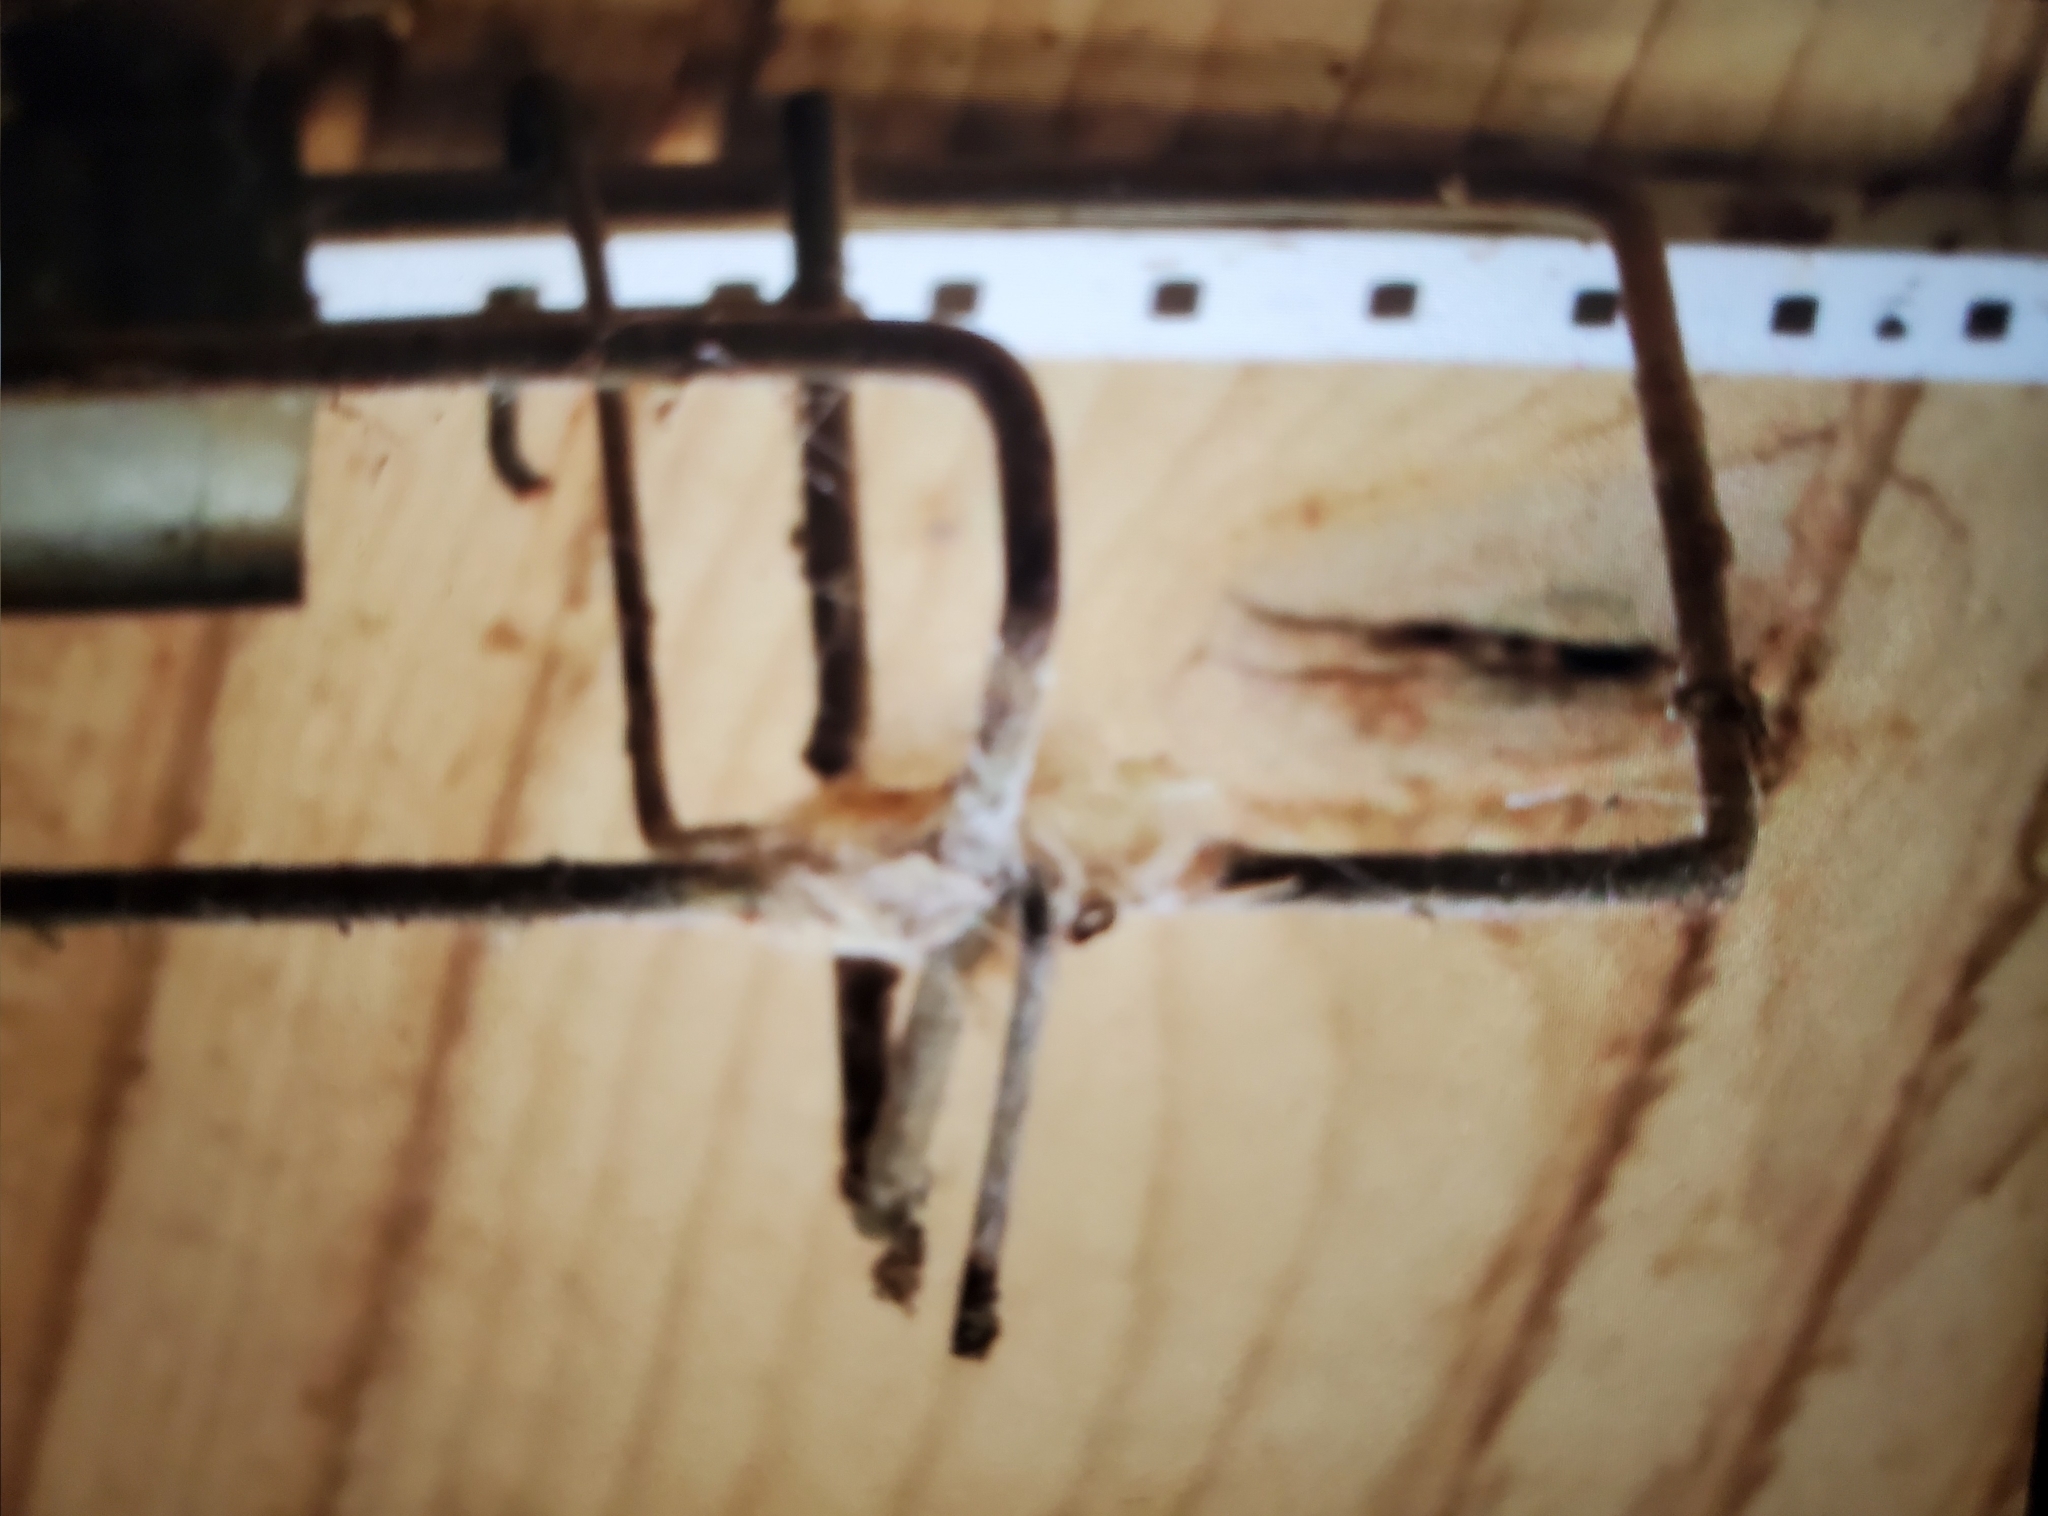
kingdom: Animalia
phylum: Chordata
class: Aves
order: Apodiformes
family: Trochilidae
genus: Calypte
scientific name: Calypte anna
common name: Anna's hummingbird
